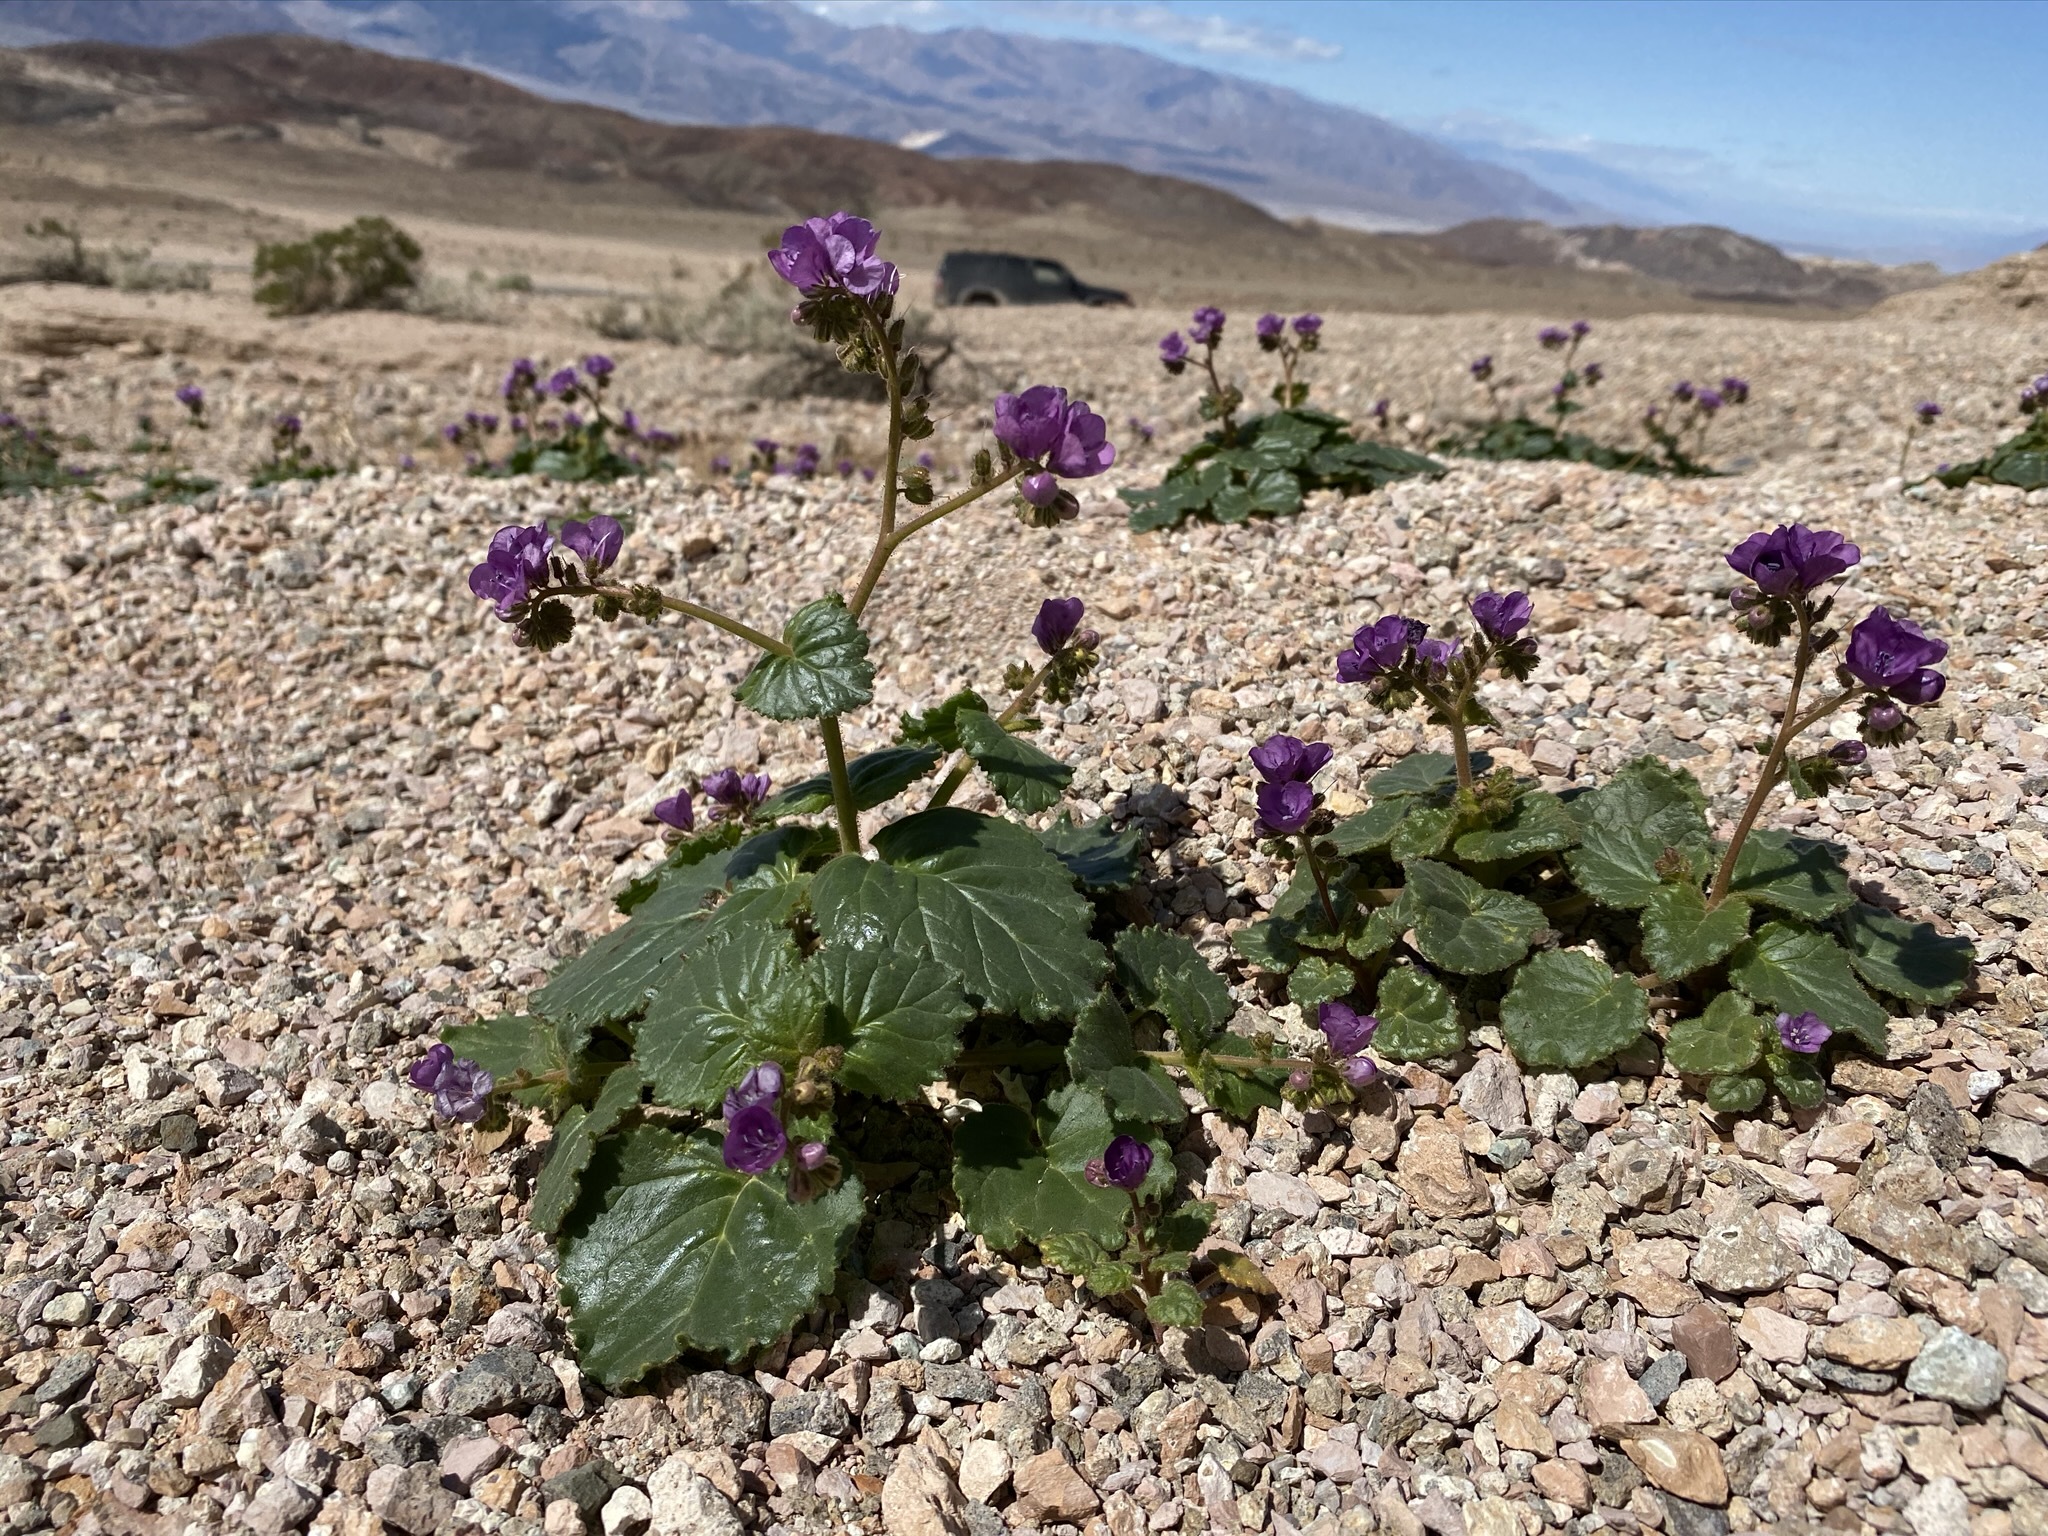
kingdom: Plantae
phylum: Tracheophyta
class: Magnoliopsida
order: Boraginales
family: Hydrophyllaceae
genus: Phacelia
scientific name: Phacelia calthifolia
